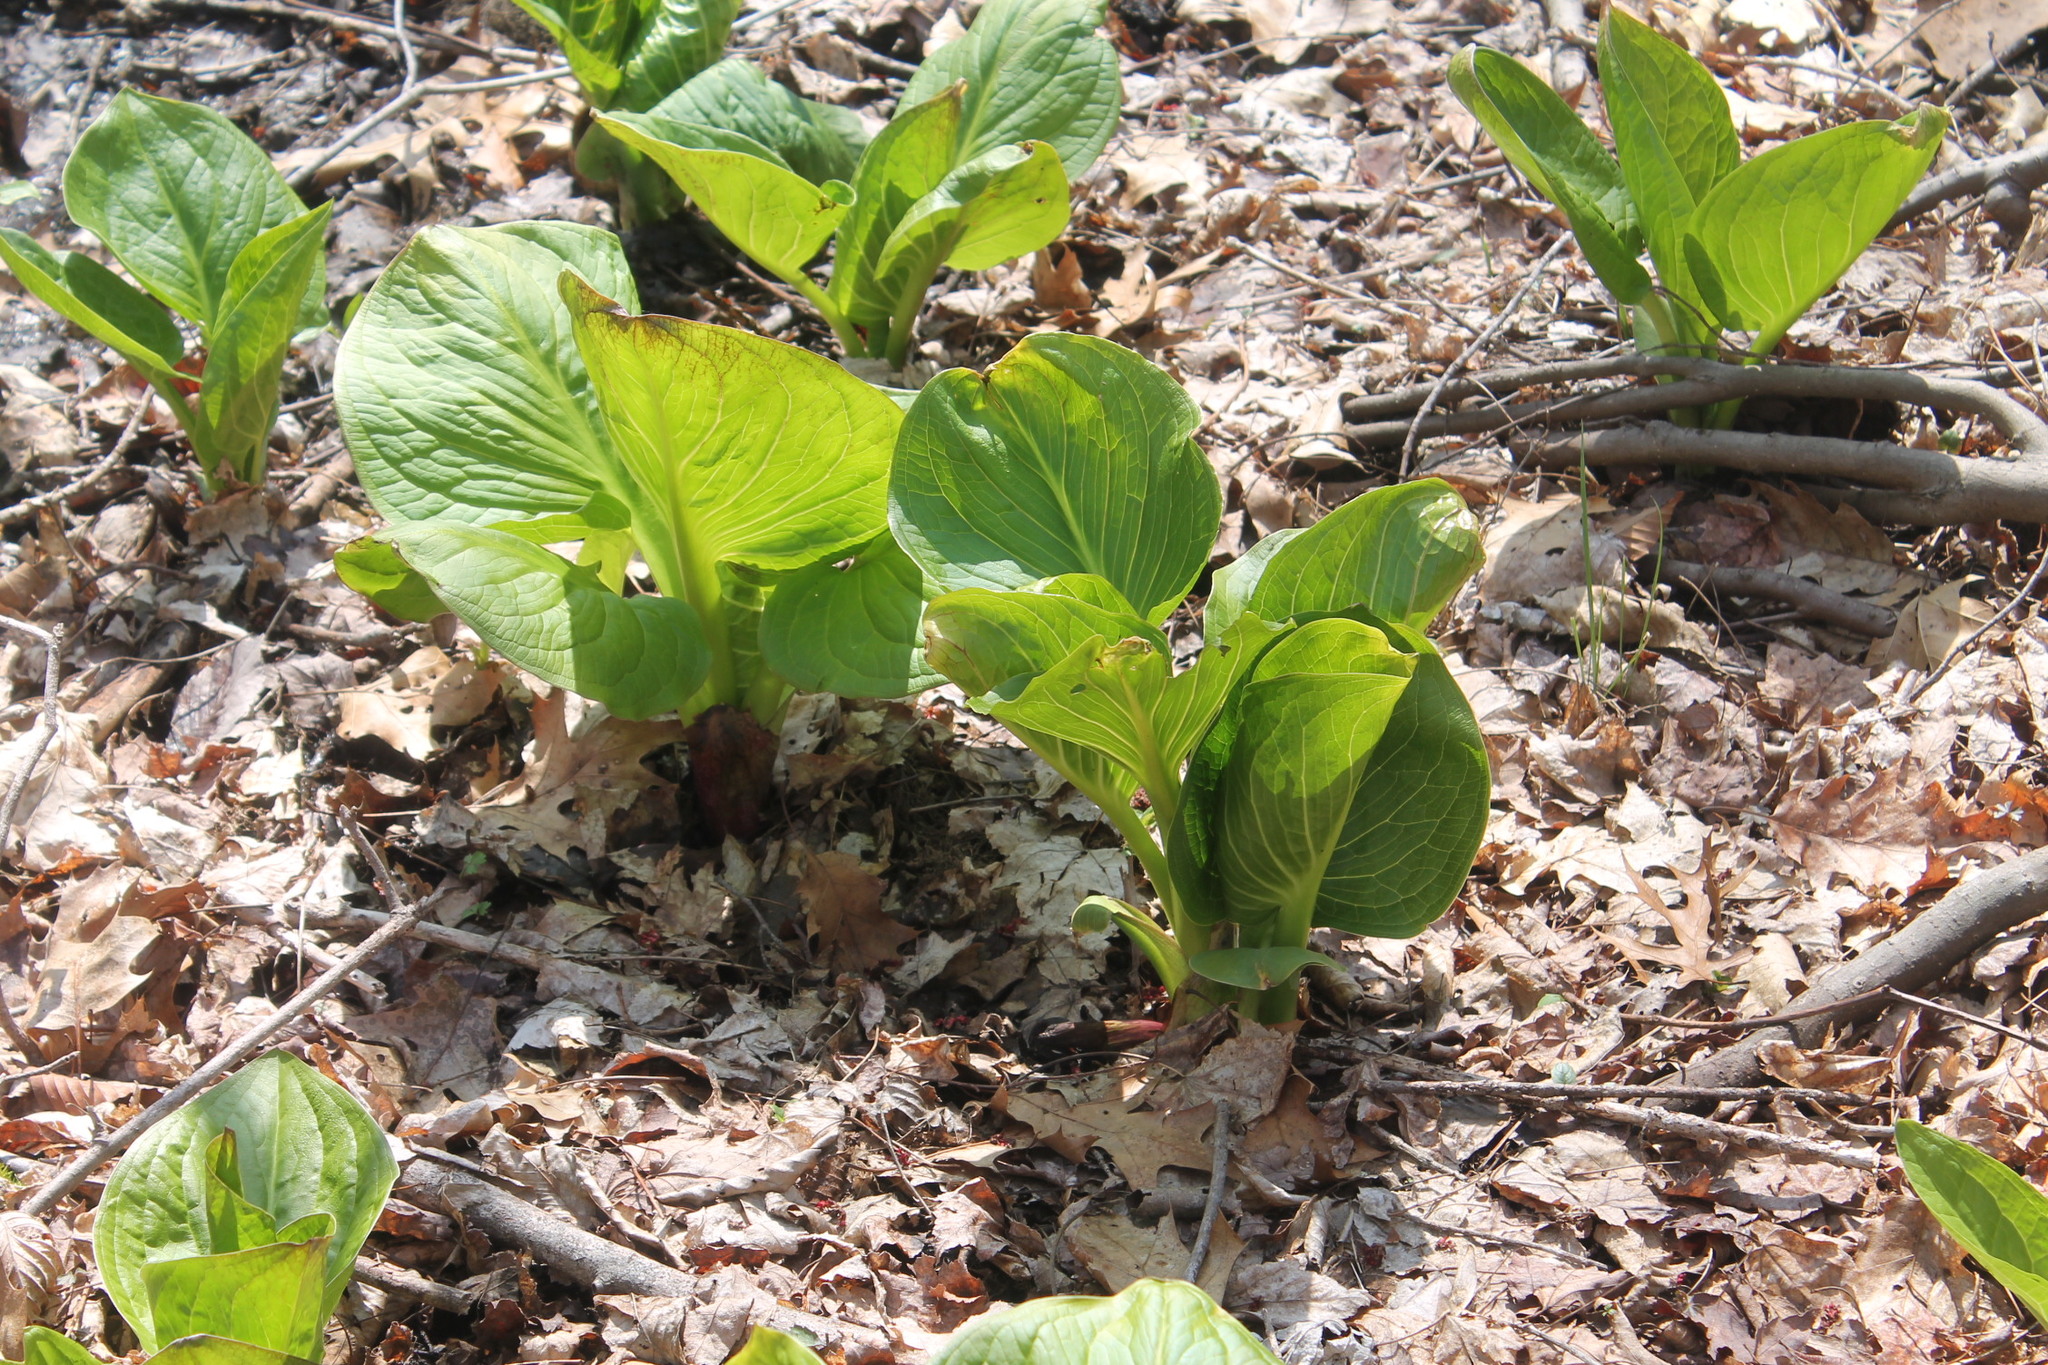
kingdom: Plantae
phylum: Tracheophyta
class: Liliopsida
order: Alismatales
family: Araceae
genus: Symplocarpus
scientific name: Symplocarpus foetidus
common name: Eastern skunk cabbage
